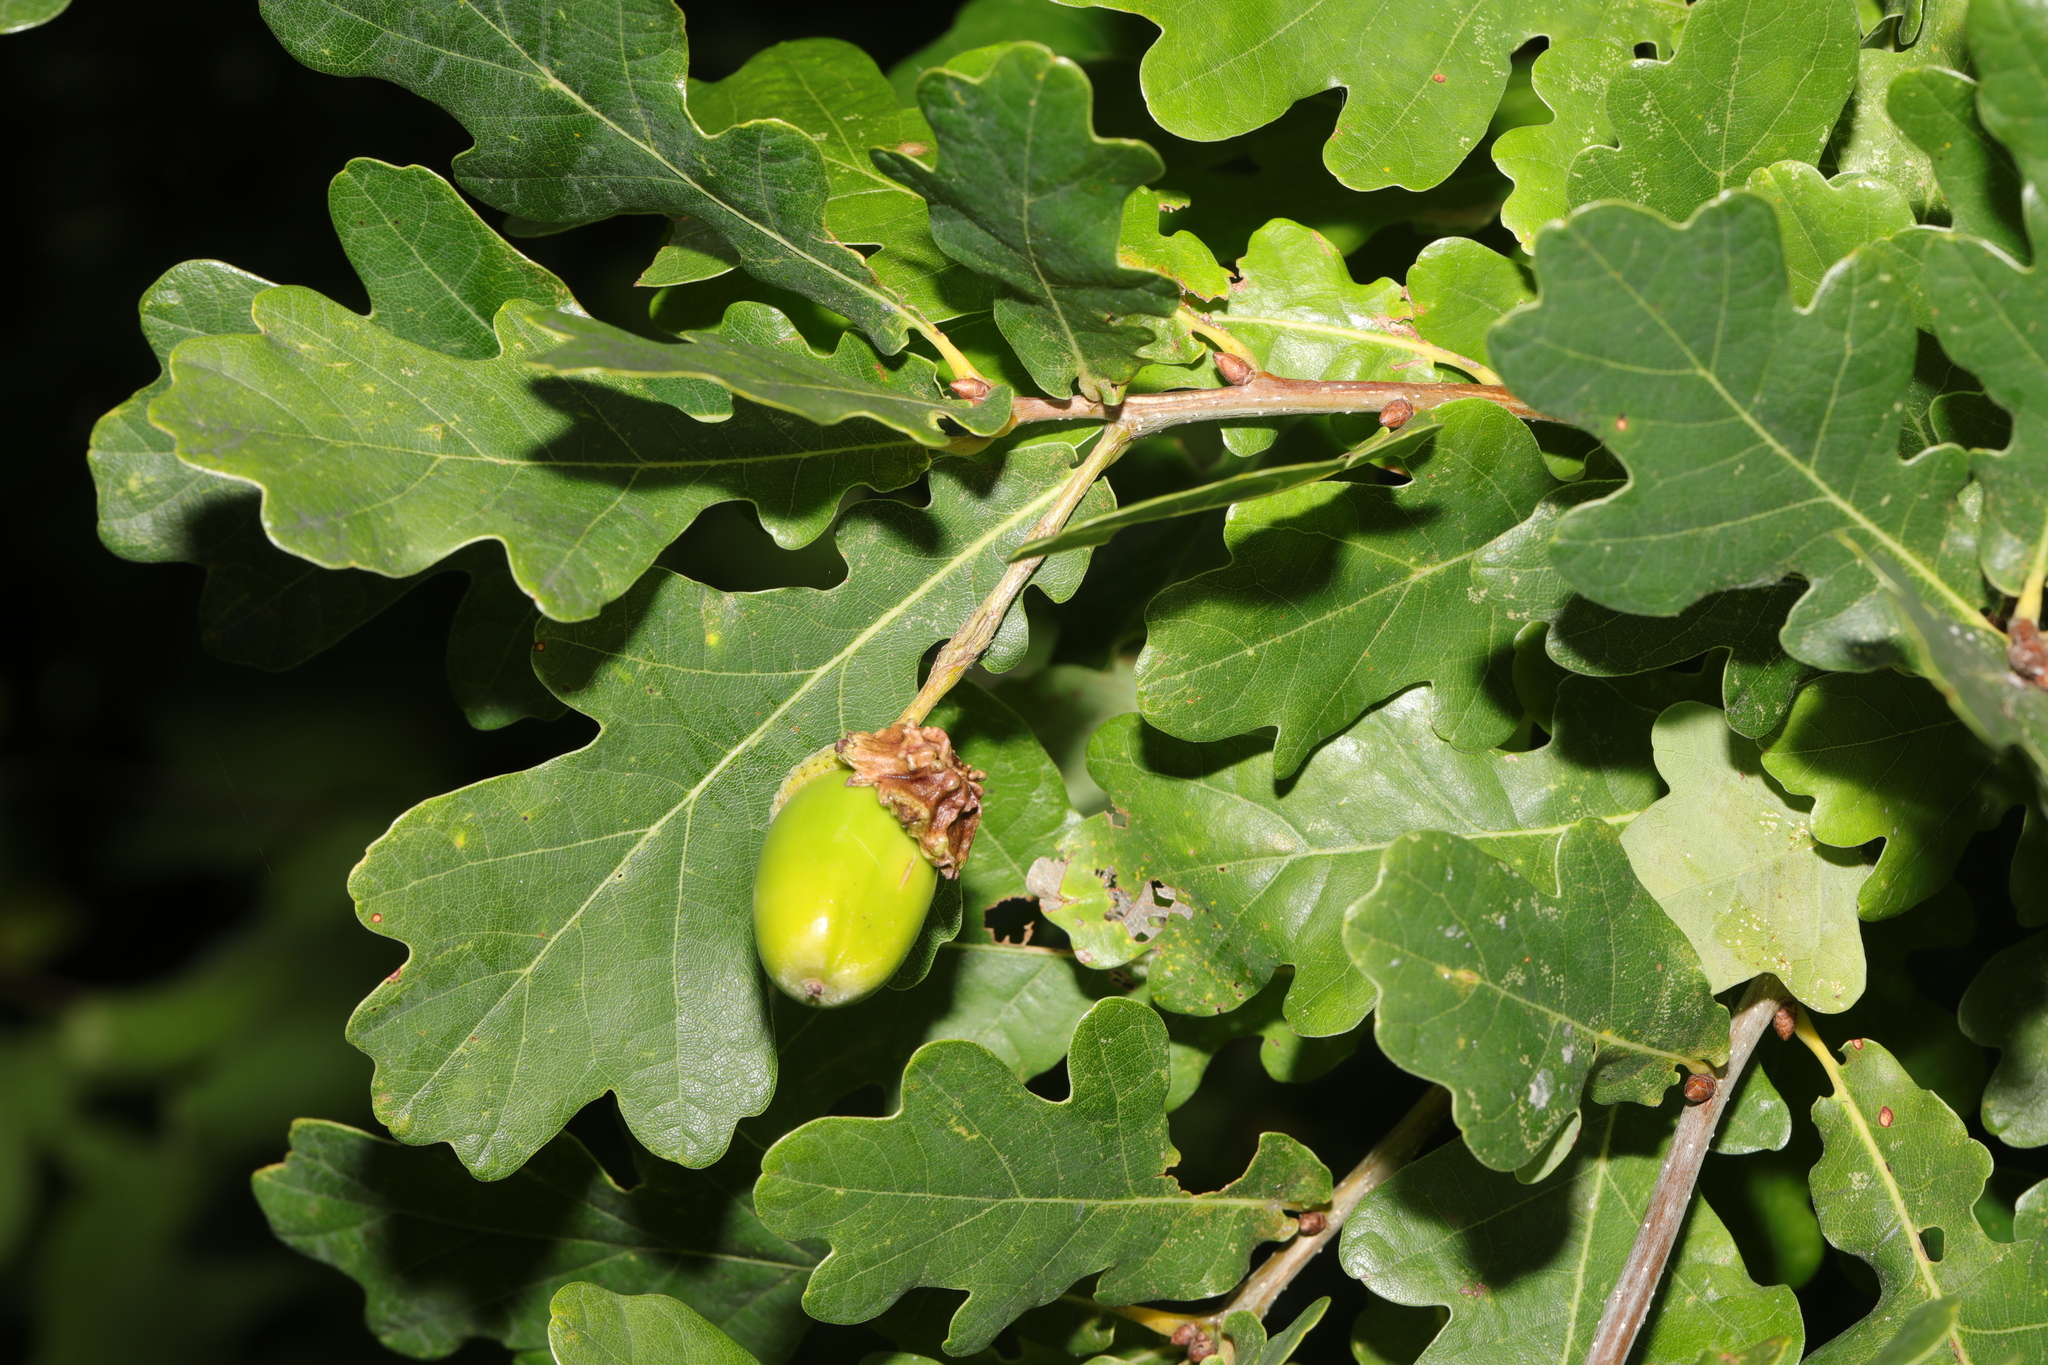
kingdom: Plantae
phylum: Tracheophyta
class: Magnoliopsida
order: Fagales
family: Fagaceae
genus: Quercus
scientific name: Quercus robur
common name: Pedunculate oak
